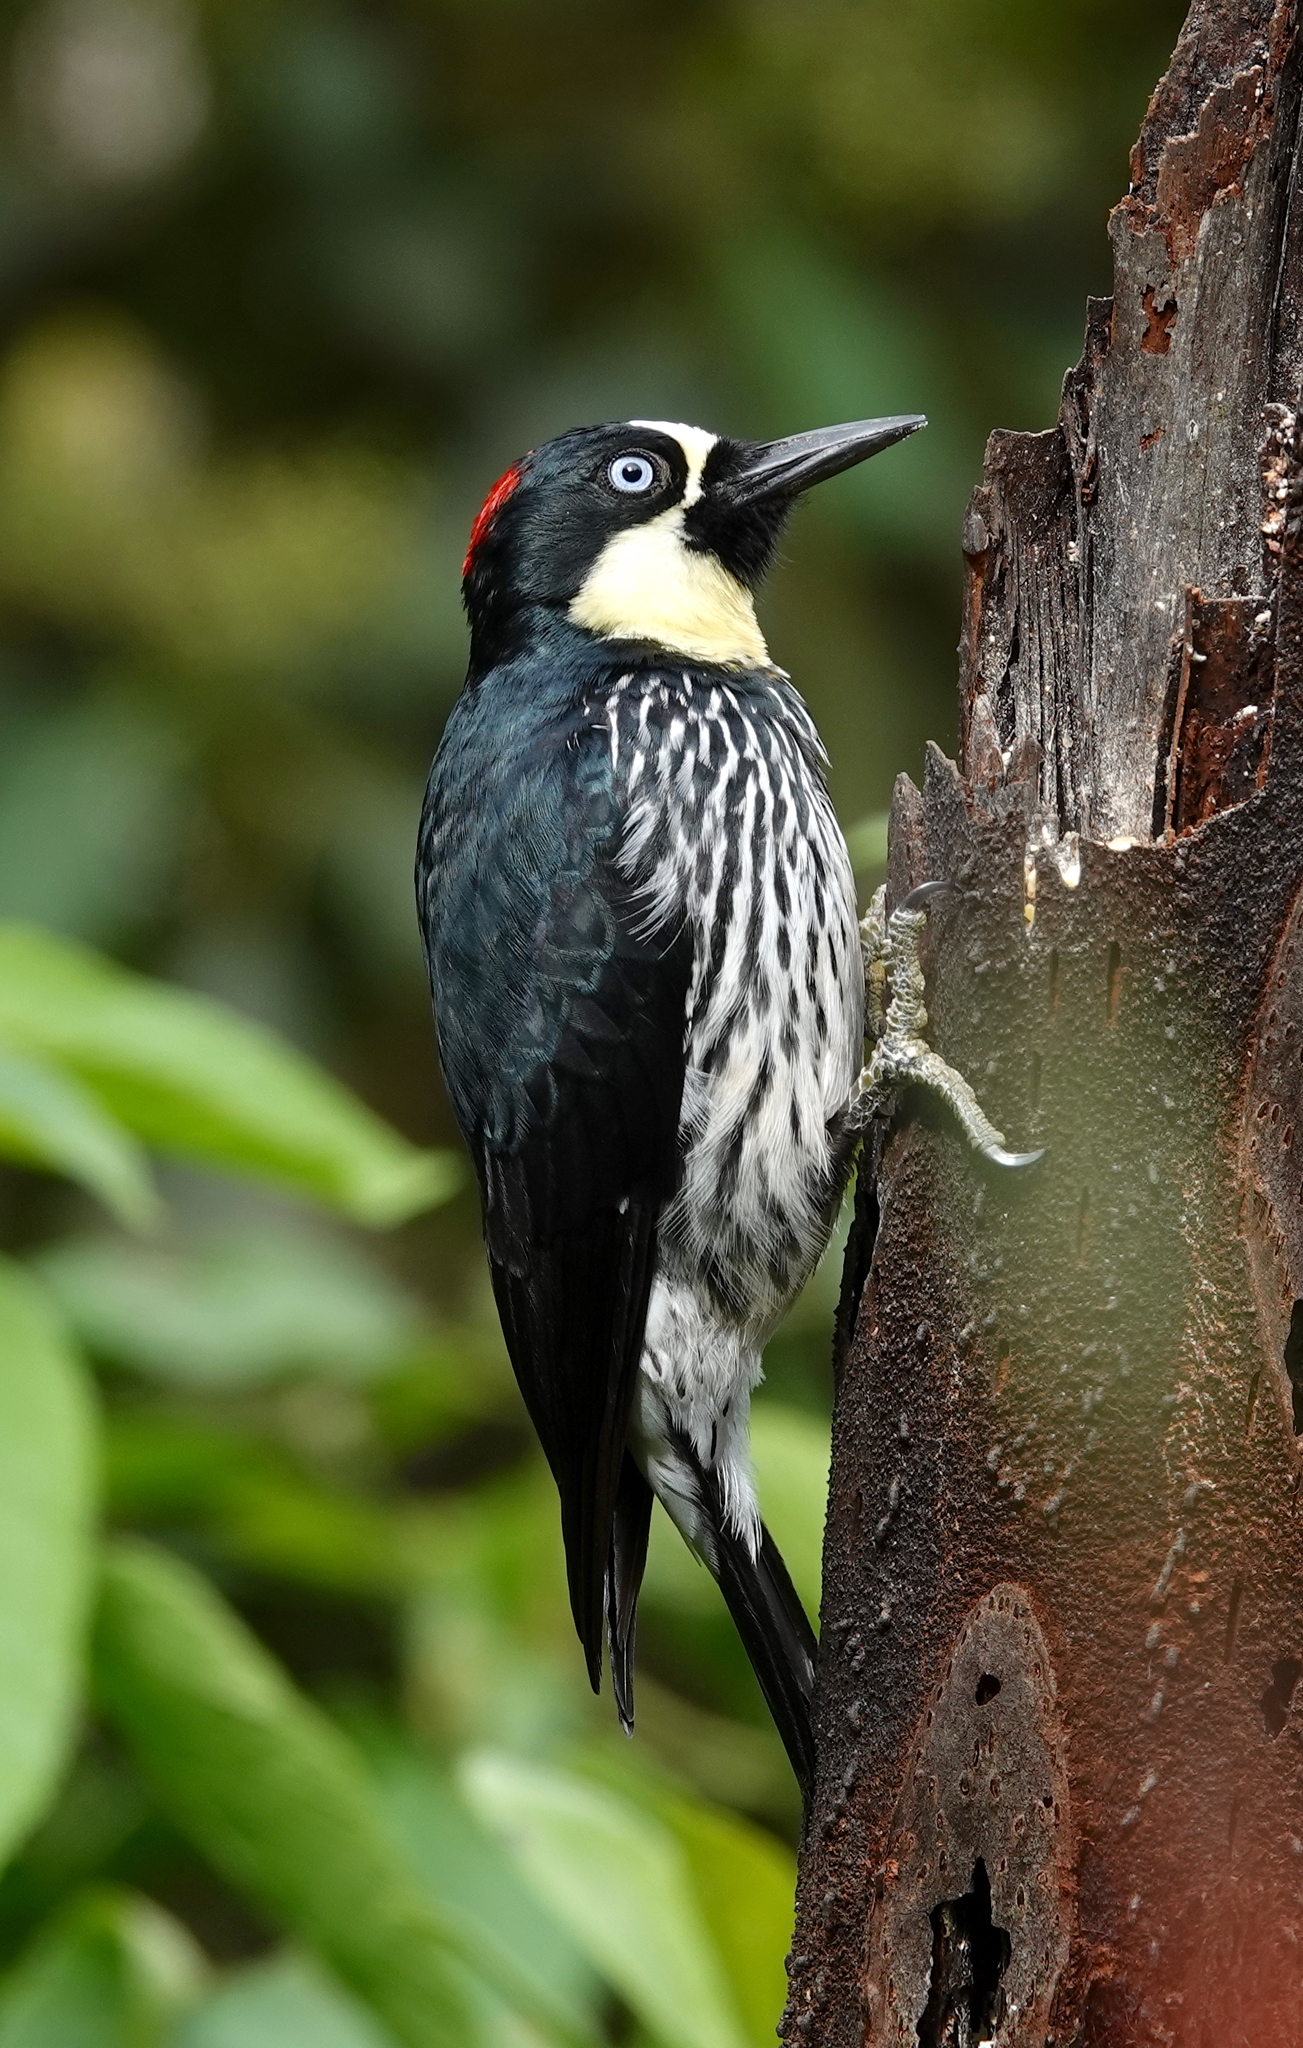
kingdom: Animalia
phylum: Chordata
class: Aves
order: Piciformes
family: Picidae
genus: Melanerpes
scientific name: Melanerpes formicivorus
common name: Acorn woodpecker
